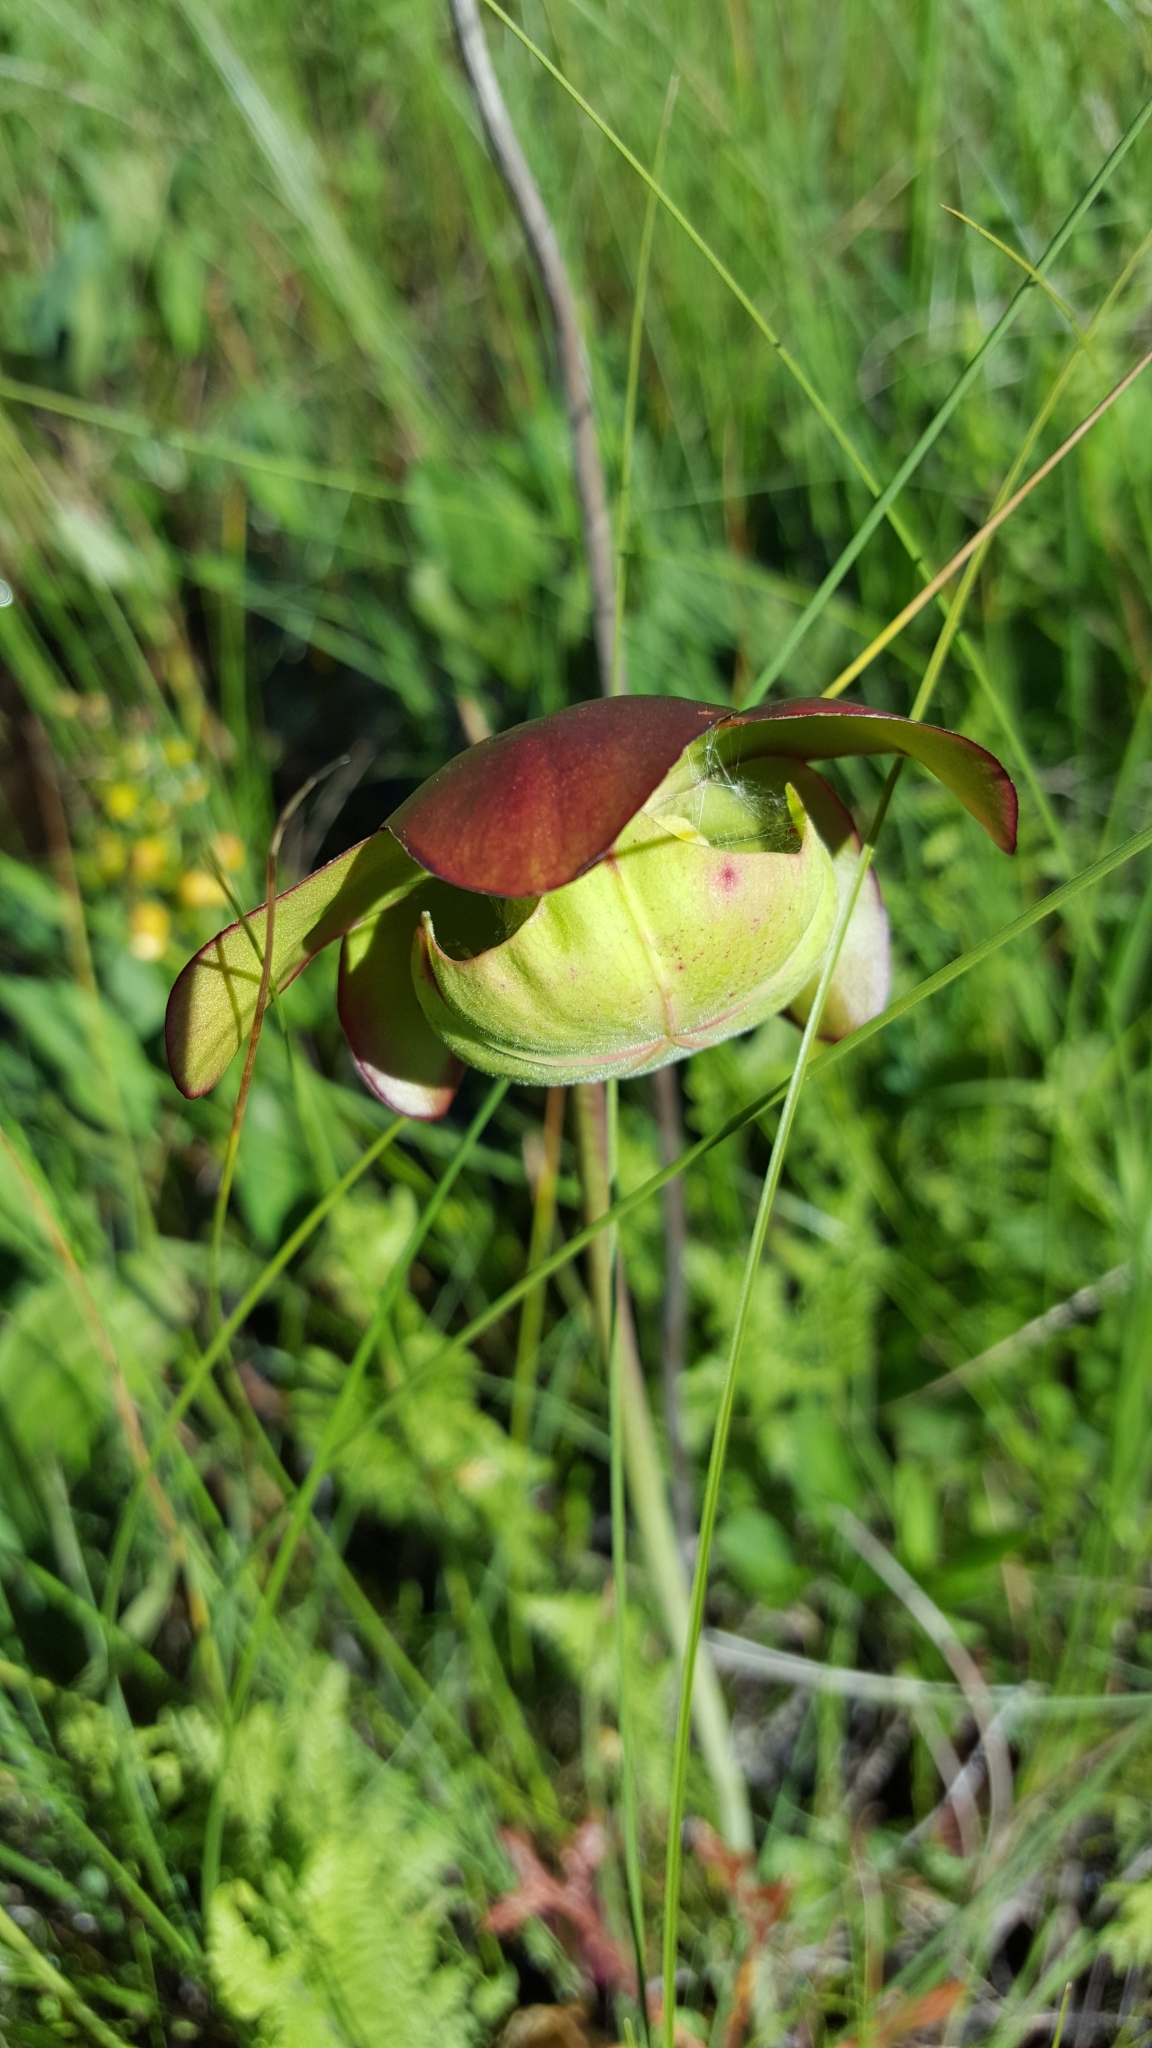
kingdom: Plantae
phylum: Tracheophyta
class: Magnoliopsida
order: Ericales
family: Sarraceniaceae
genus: Sarracenia
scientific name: Sarracenia purpurea
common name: Pitcherplant
